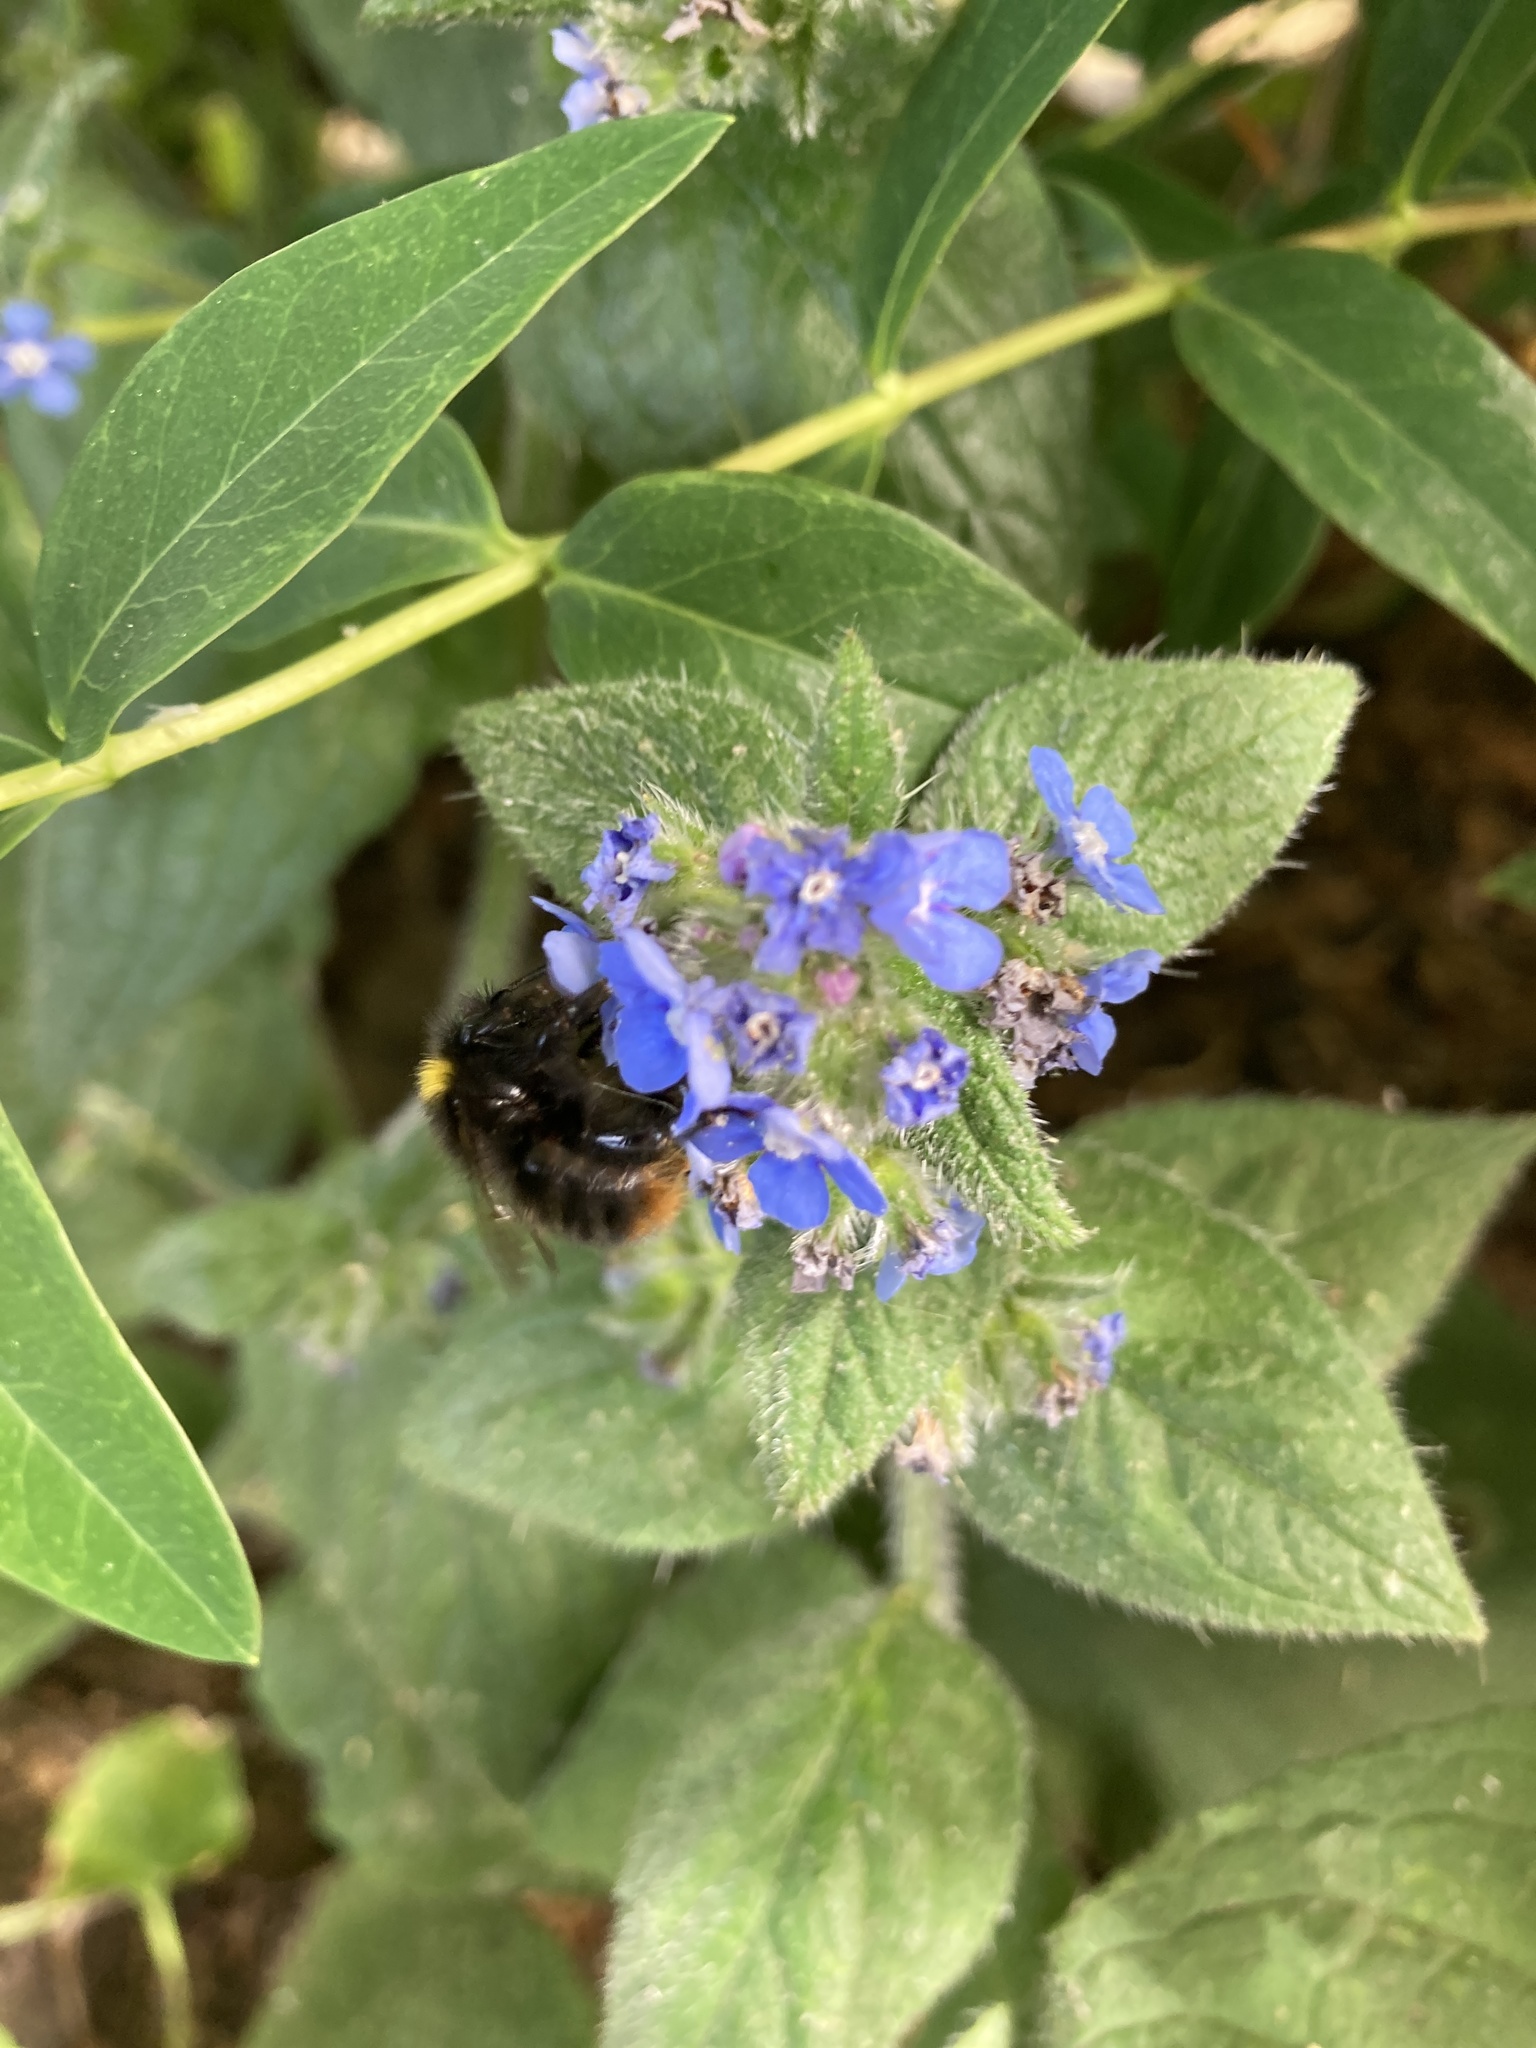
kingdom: Animalia
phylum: Arthropoda
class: Insecta
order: Hymenoptera
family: Apidae
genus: Bombus
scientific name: Bombus pratorum
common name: Early humble-bee
